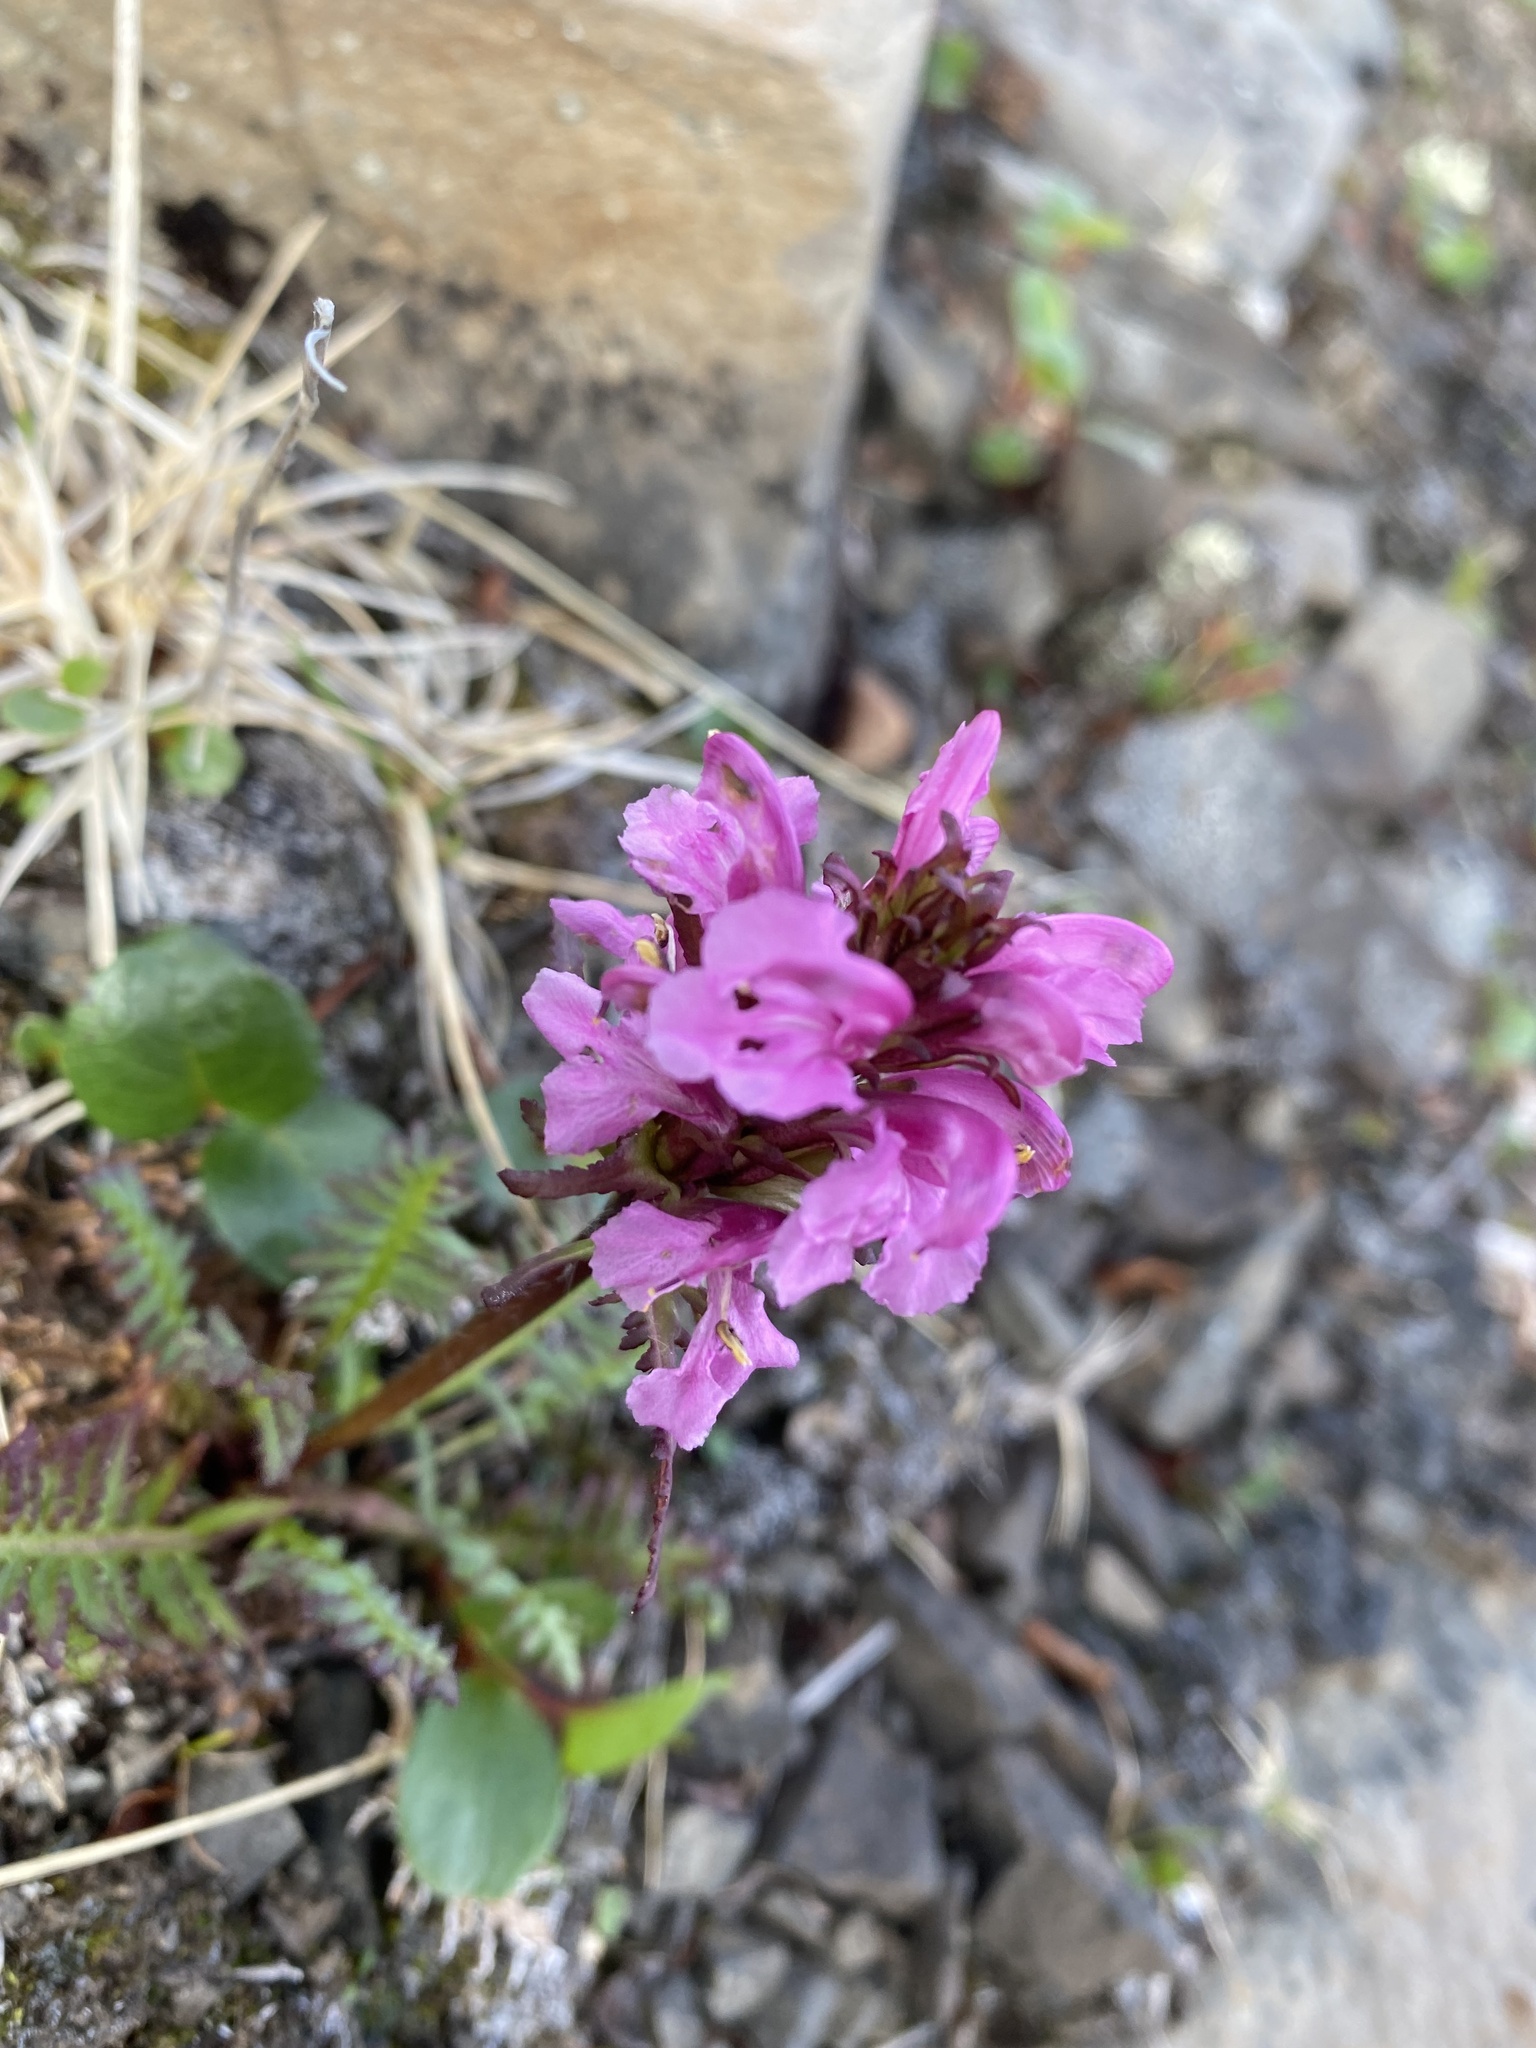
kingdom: Plantae
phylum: Tracheophyta
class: Magnoliopsida
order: Lamiales
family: Orobanchaceae
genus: Pedicularis
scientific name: Pedicularis interior
